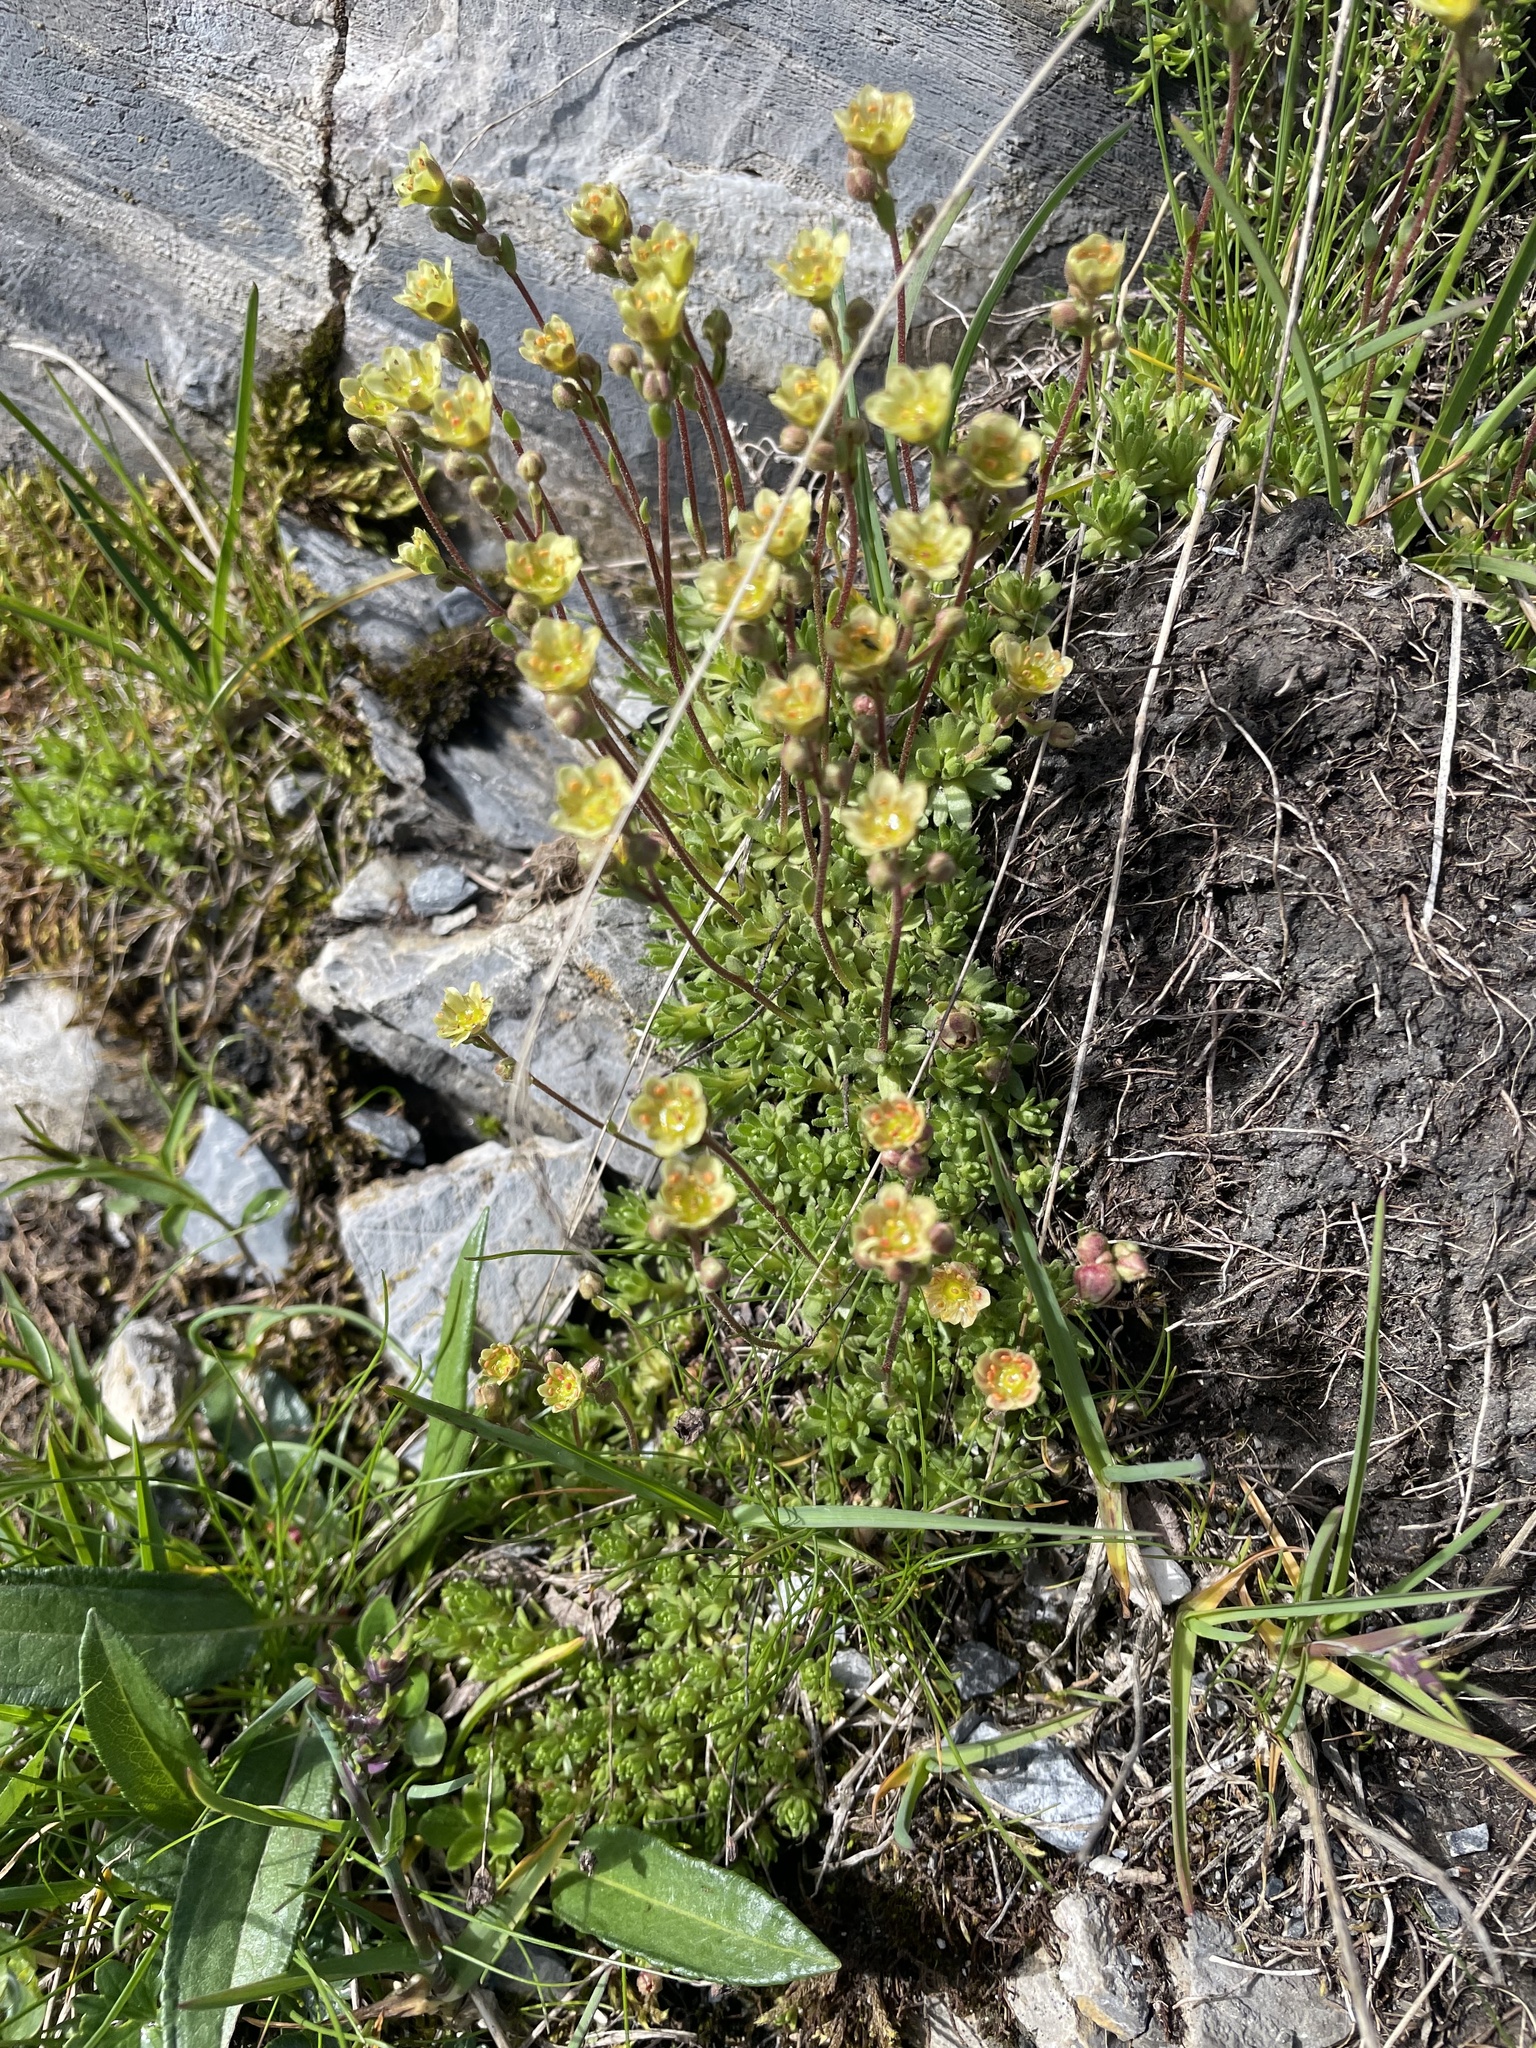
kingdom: Plantae
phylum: Tracheophyta
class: Magnoliopsida
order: Saxifragales
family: Saxifragaceae
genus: Saxifraga
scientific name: Saxifraga moschata
